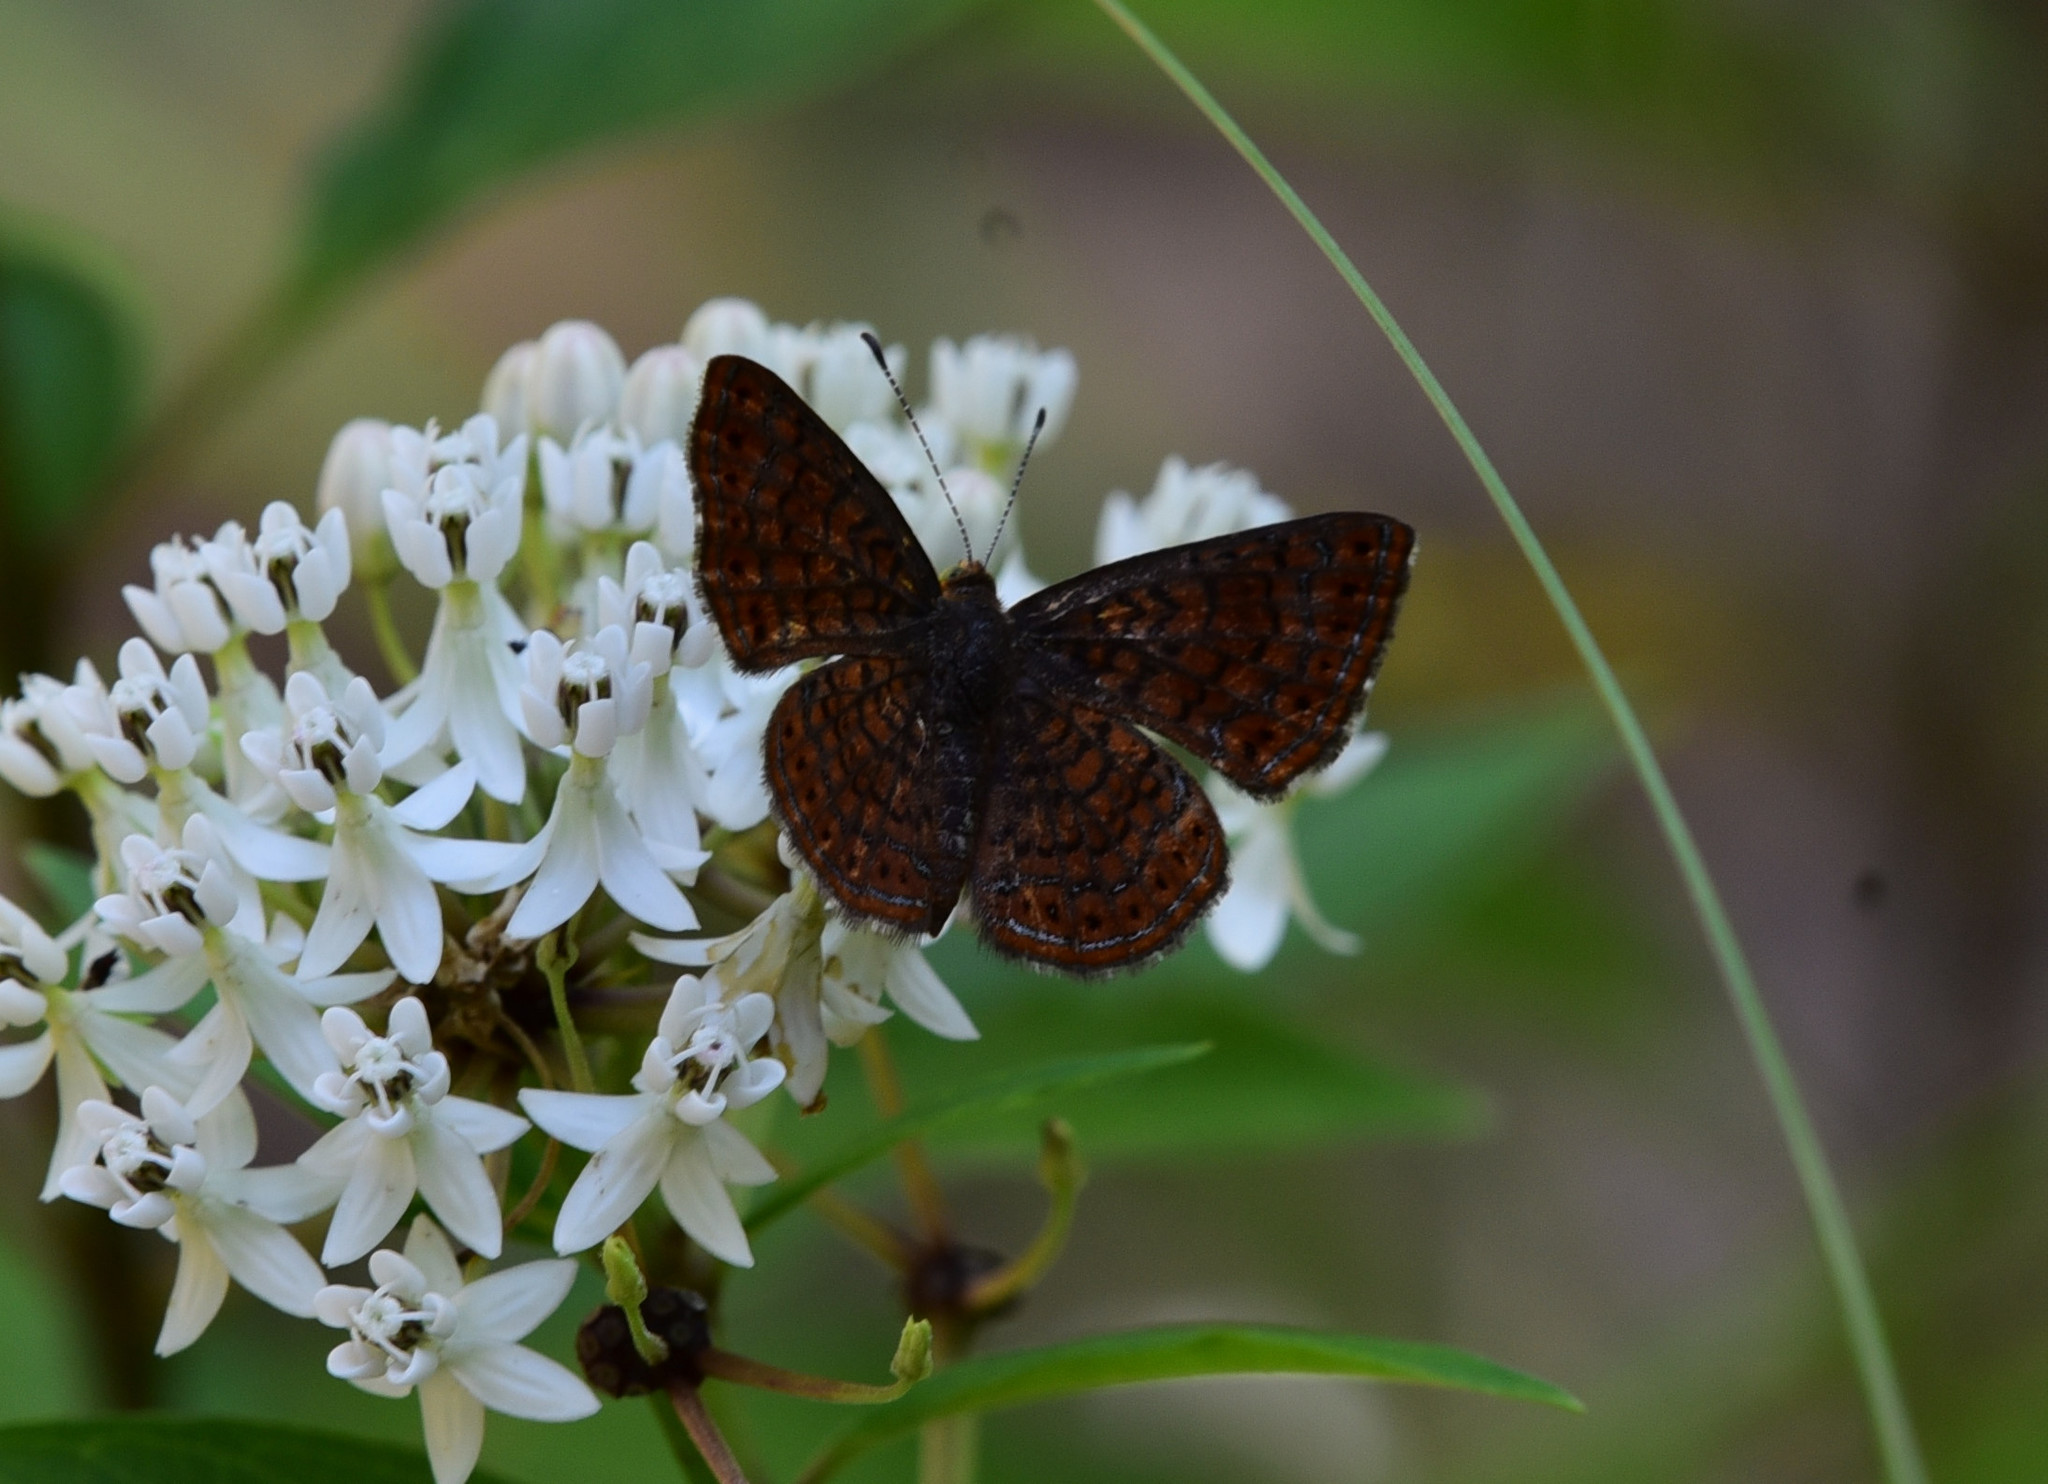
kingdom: Animalia
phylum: Arthropoda
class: Insecta
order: Lepidoptera
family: Lycaenidae
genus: Emesis
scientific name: Emesis rawsoni
